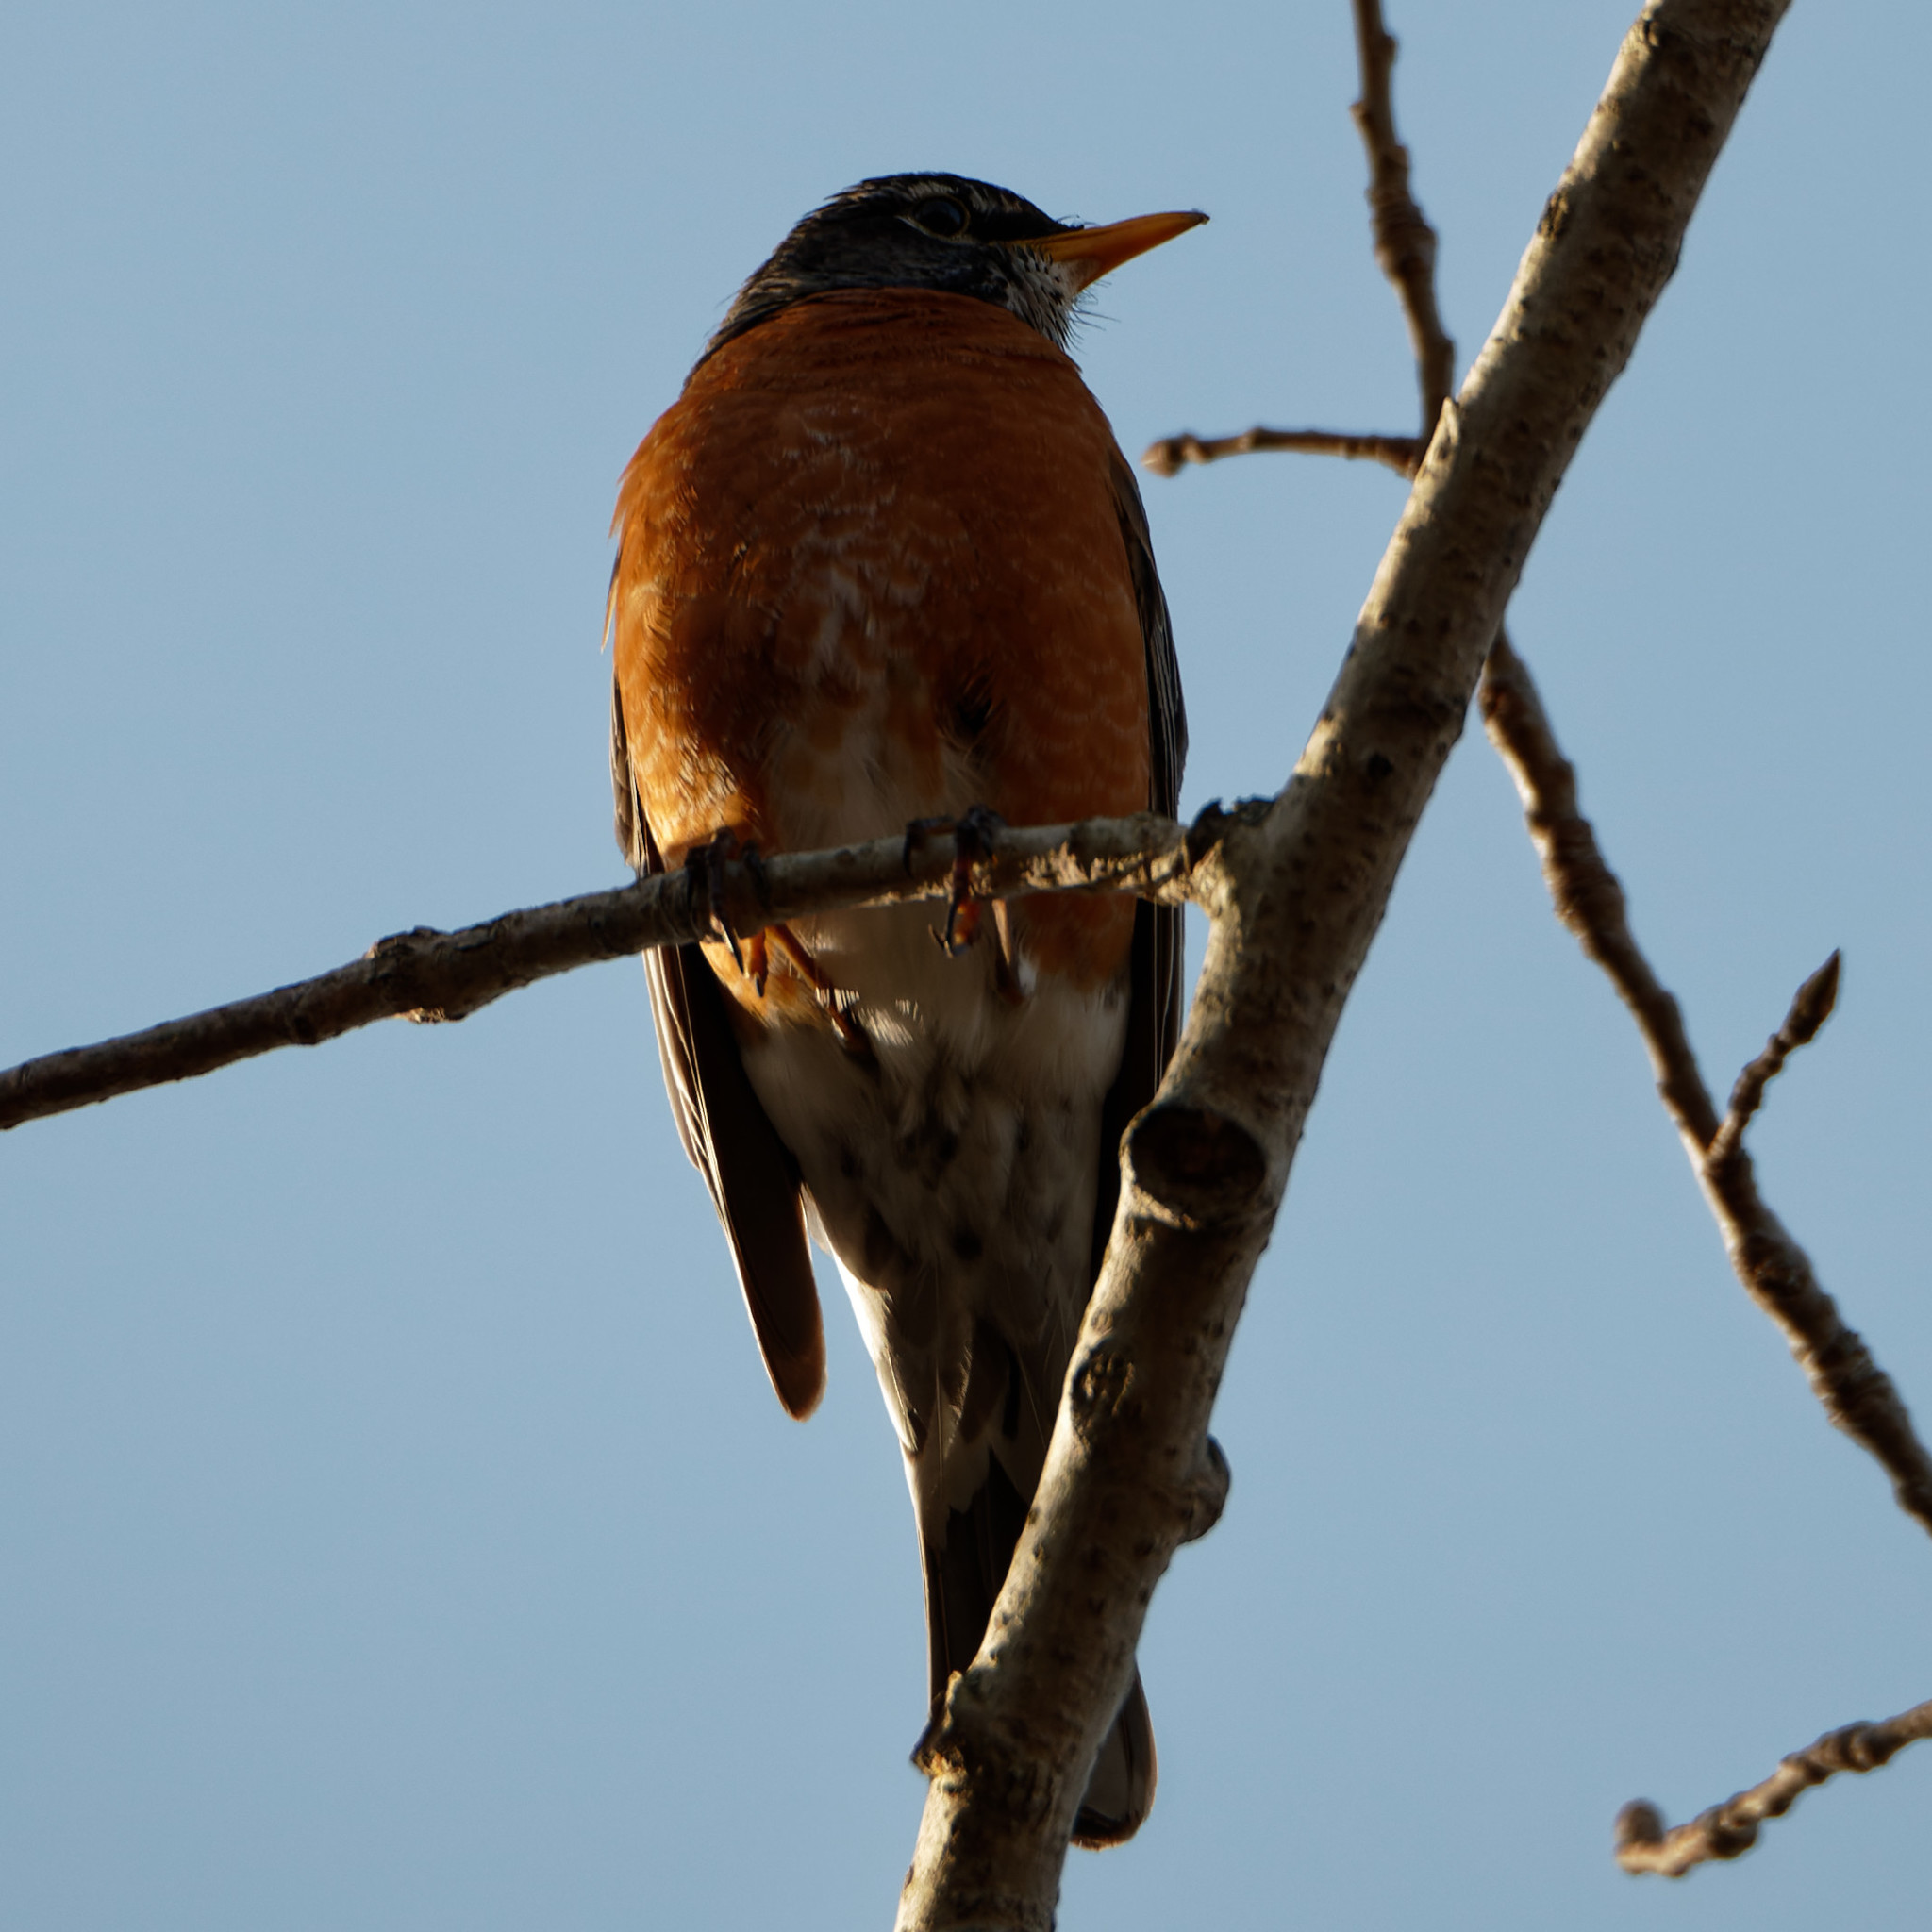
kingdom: Animalia
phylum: Chordata
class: Aves
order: Passeriformes
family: Turdidae
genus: Turdus
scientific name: Turdus migratorius
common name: American robin
